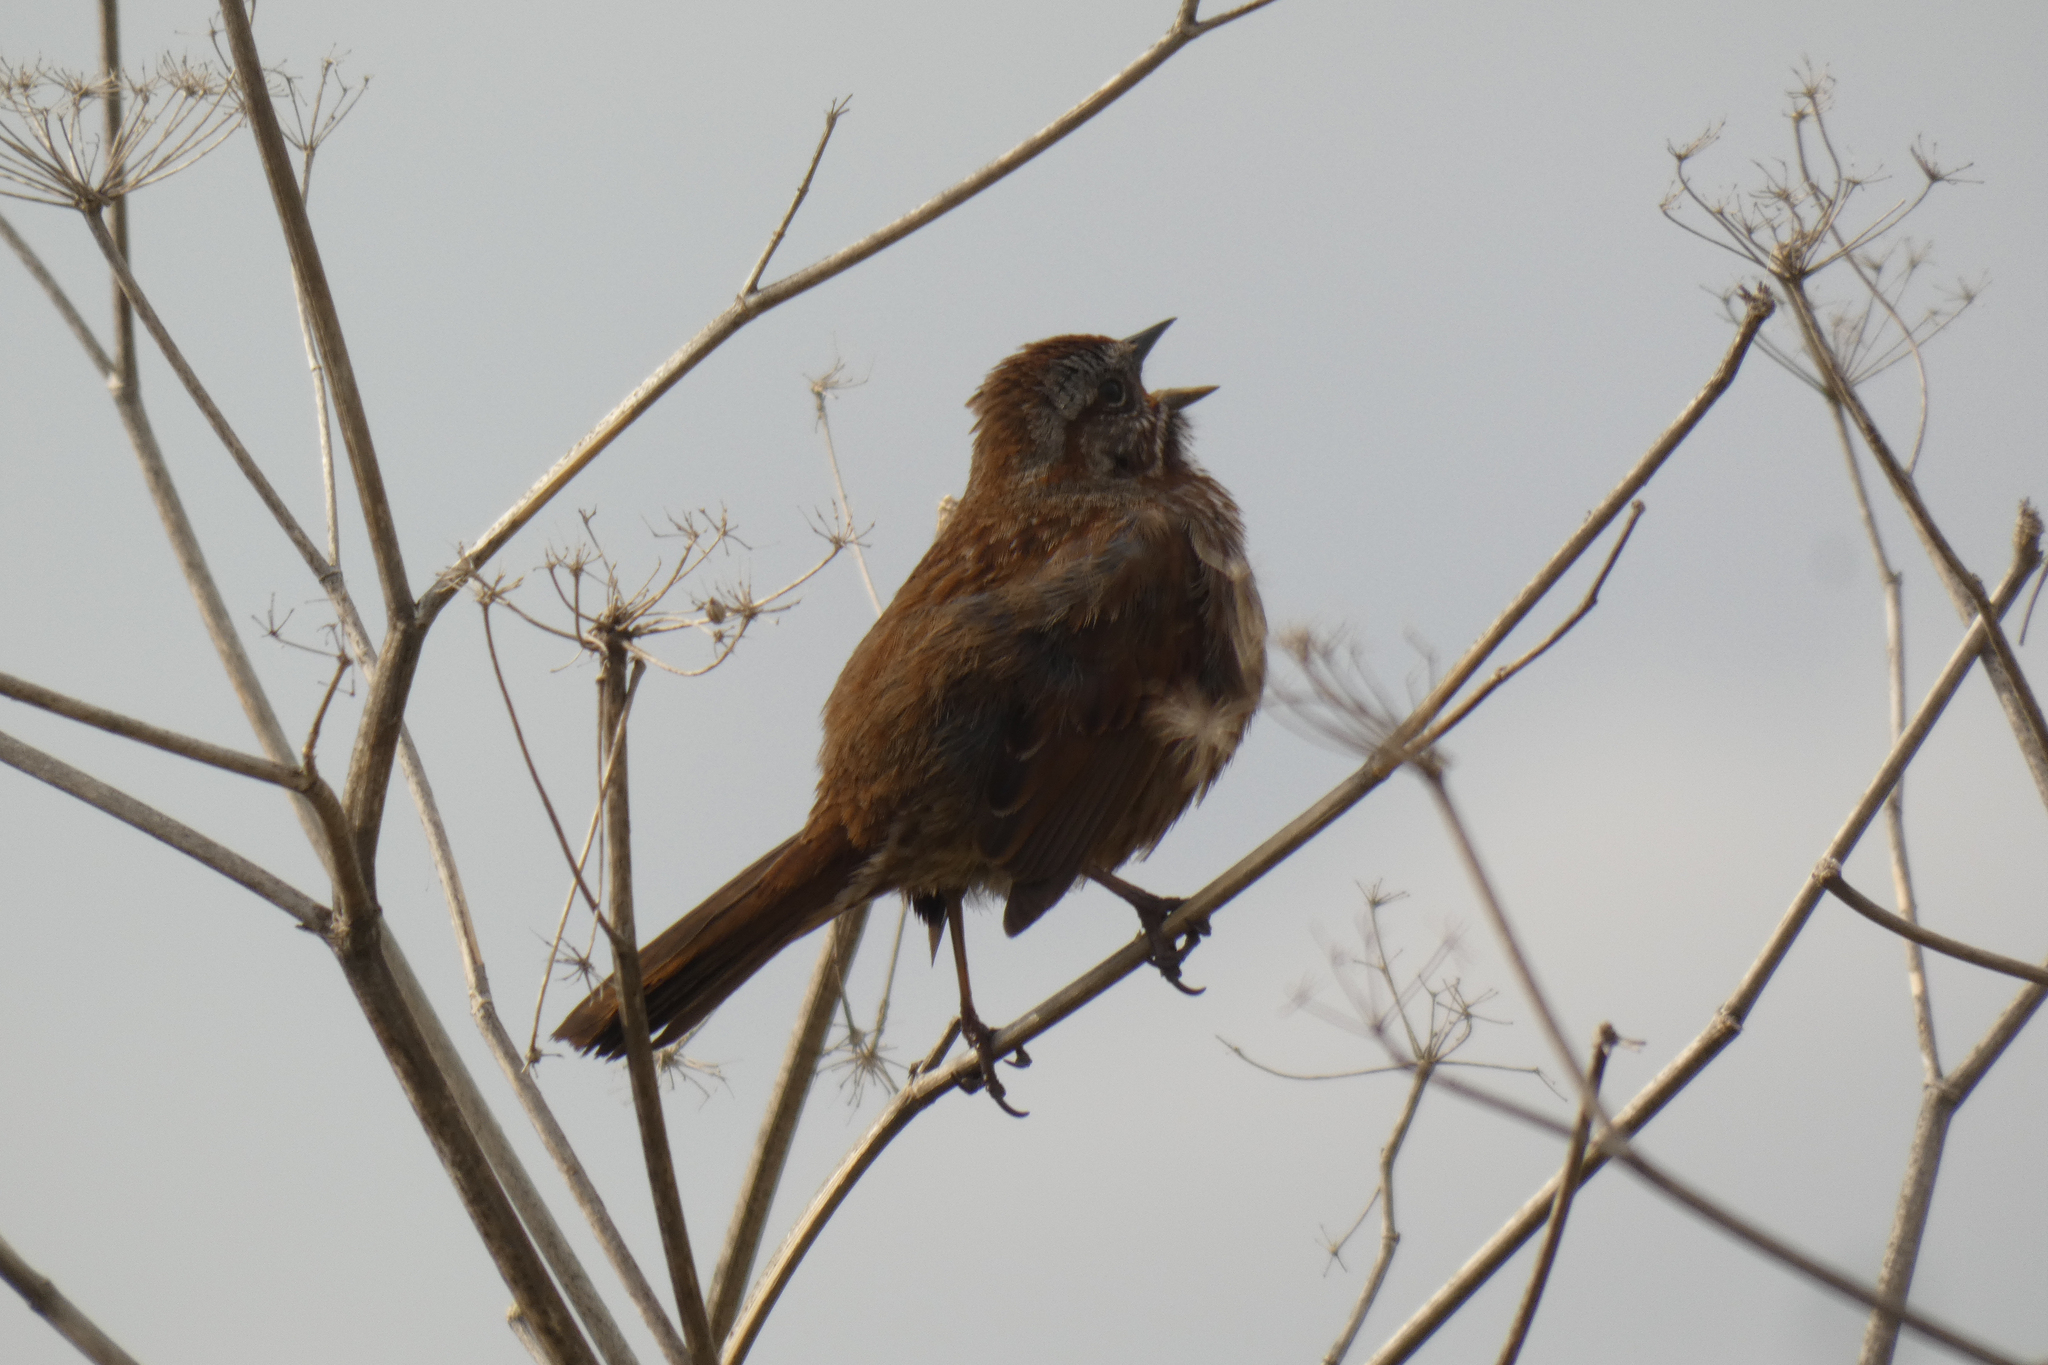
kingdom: Animalia
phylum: Chordata
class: Aves
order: Passeriformes
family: Passerellidae
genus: Melospiza
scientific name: Melospiza melodia
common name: Song sparrow
